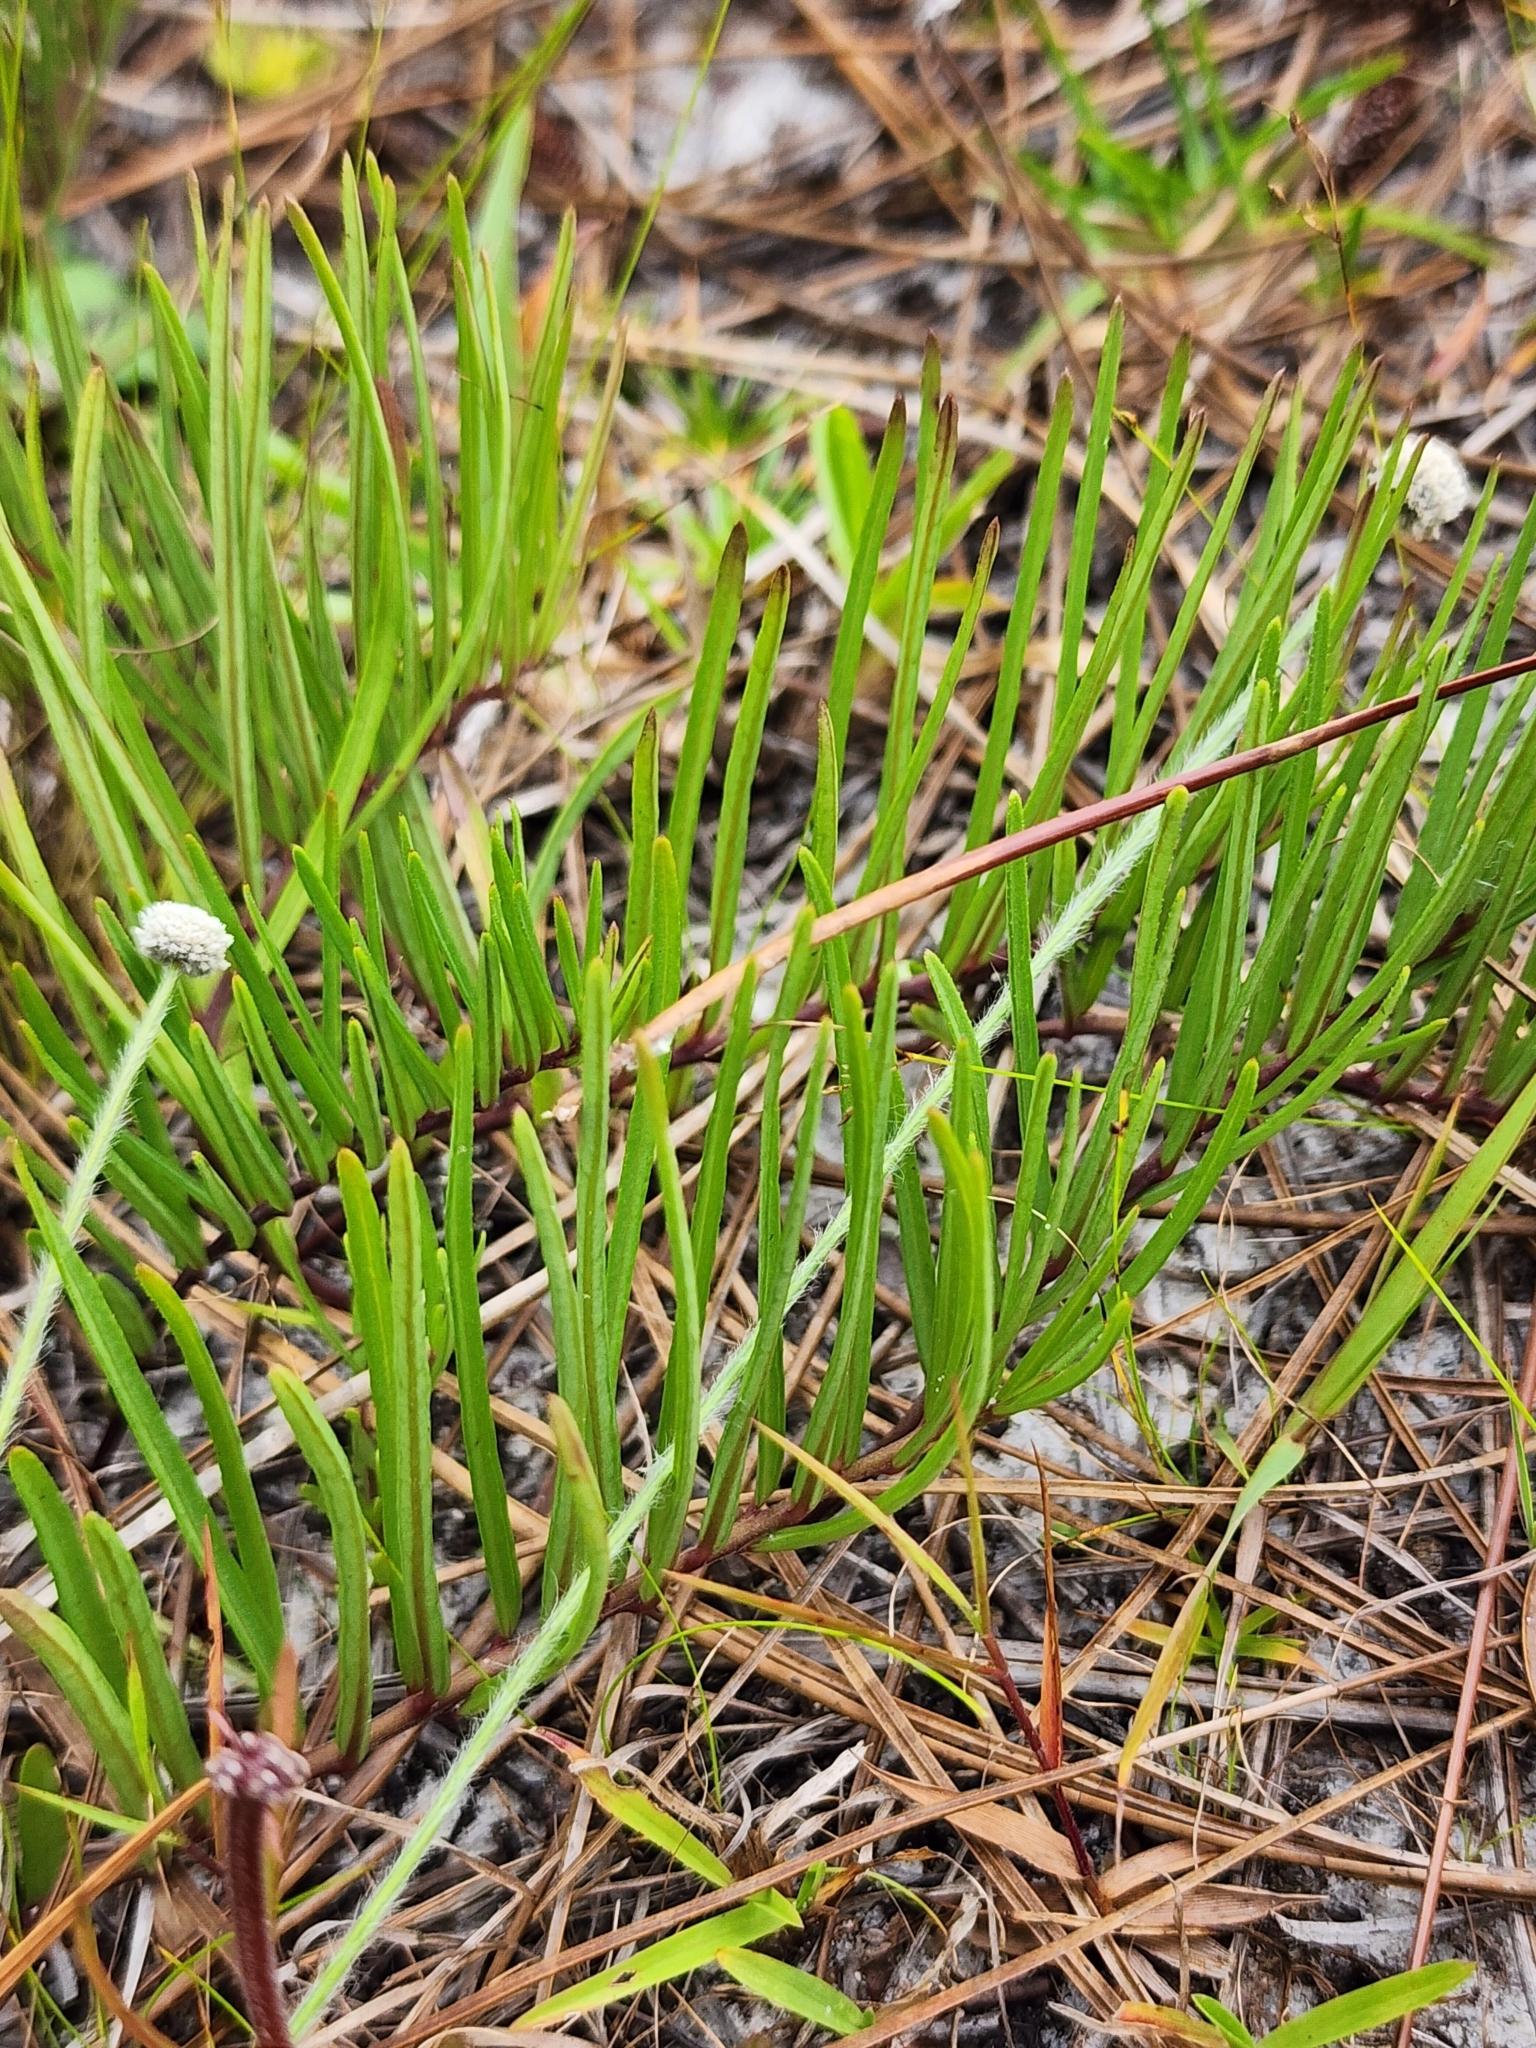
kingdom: Plantae
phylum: Tracheophyta
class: Magnoliopsida
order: Gentianales
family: Apocynaceae
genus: Asclepias
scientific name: Asclepias michauxii
